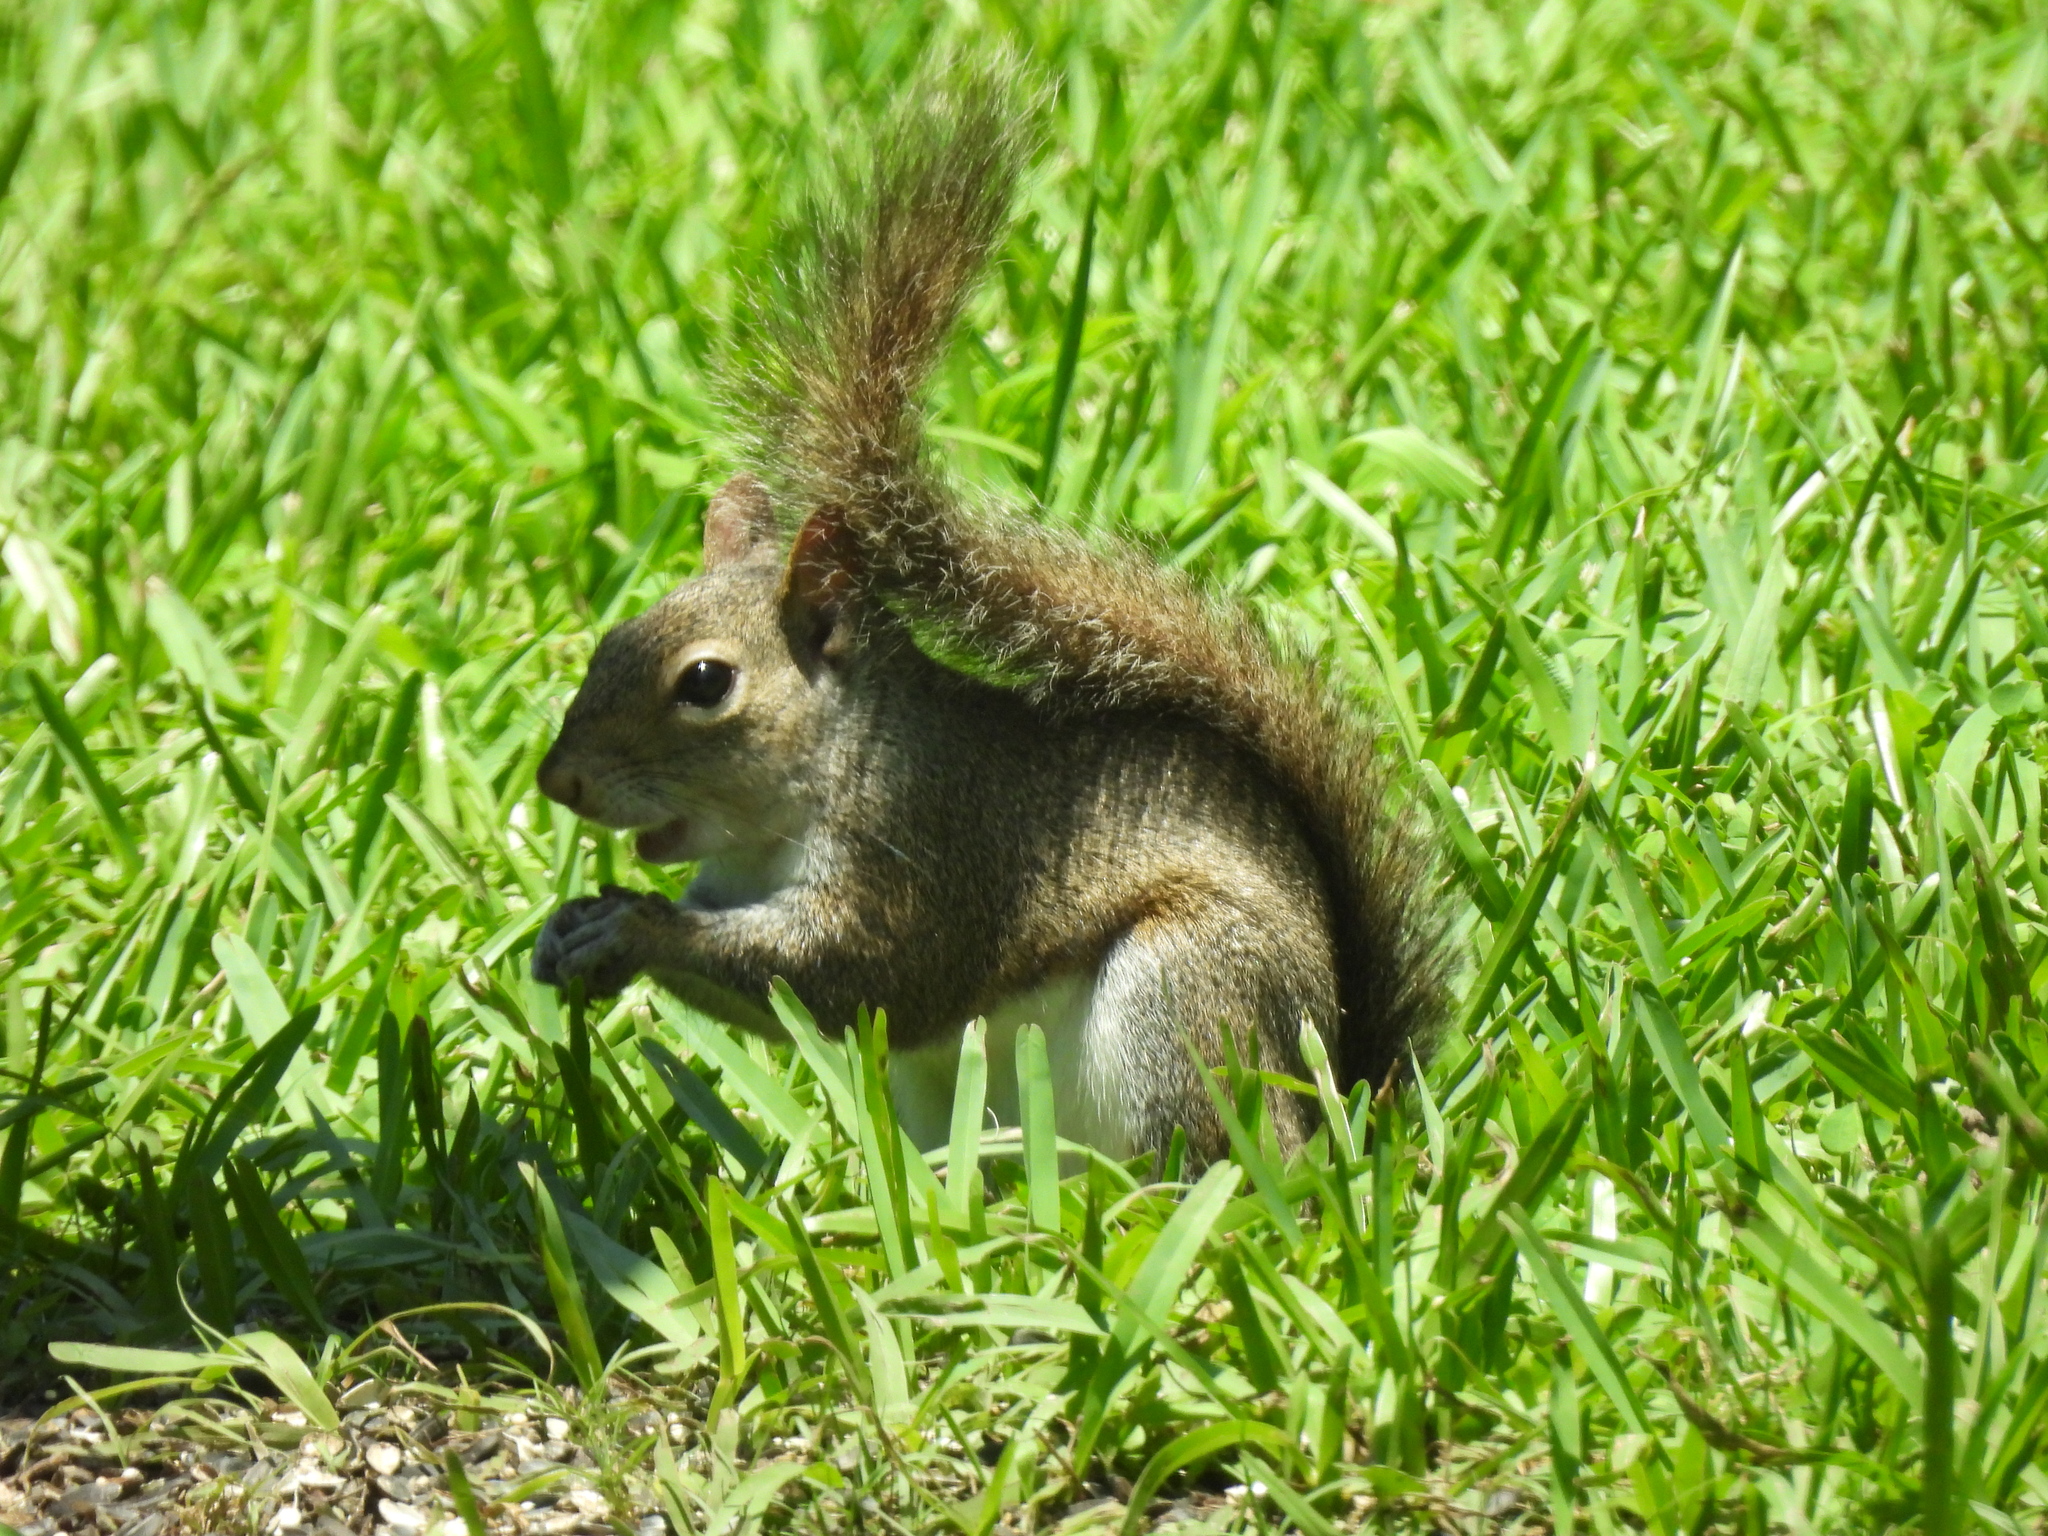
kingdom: Animalia
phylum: Chordata
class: Mammalia
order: Rodentia
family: Sciuridae
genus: Sciurus
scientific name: Sciurus carolinensis
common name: Eastern gray squirrel
